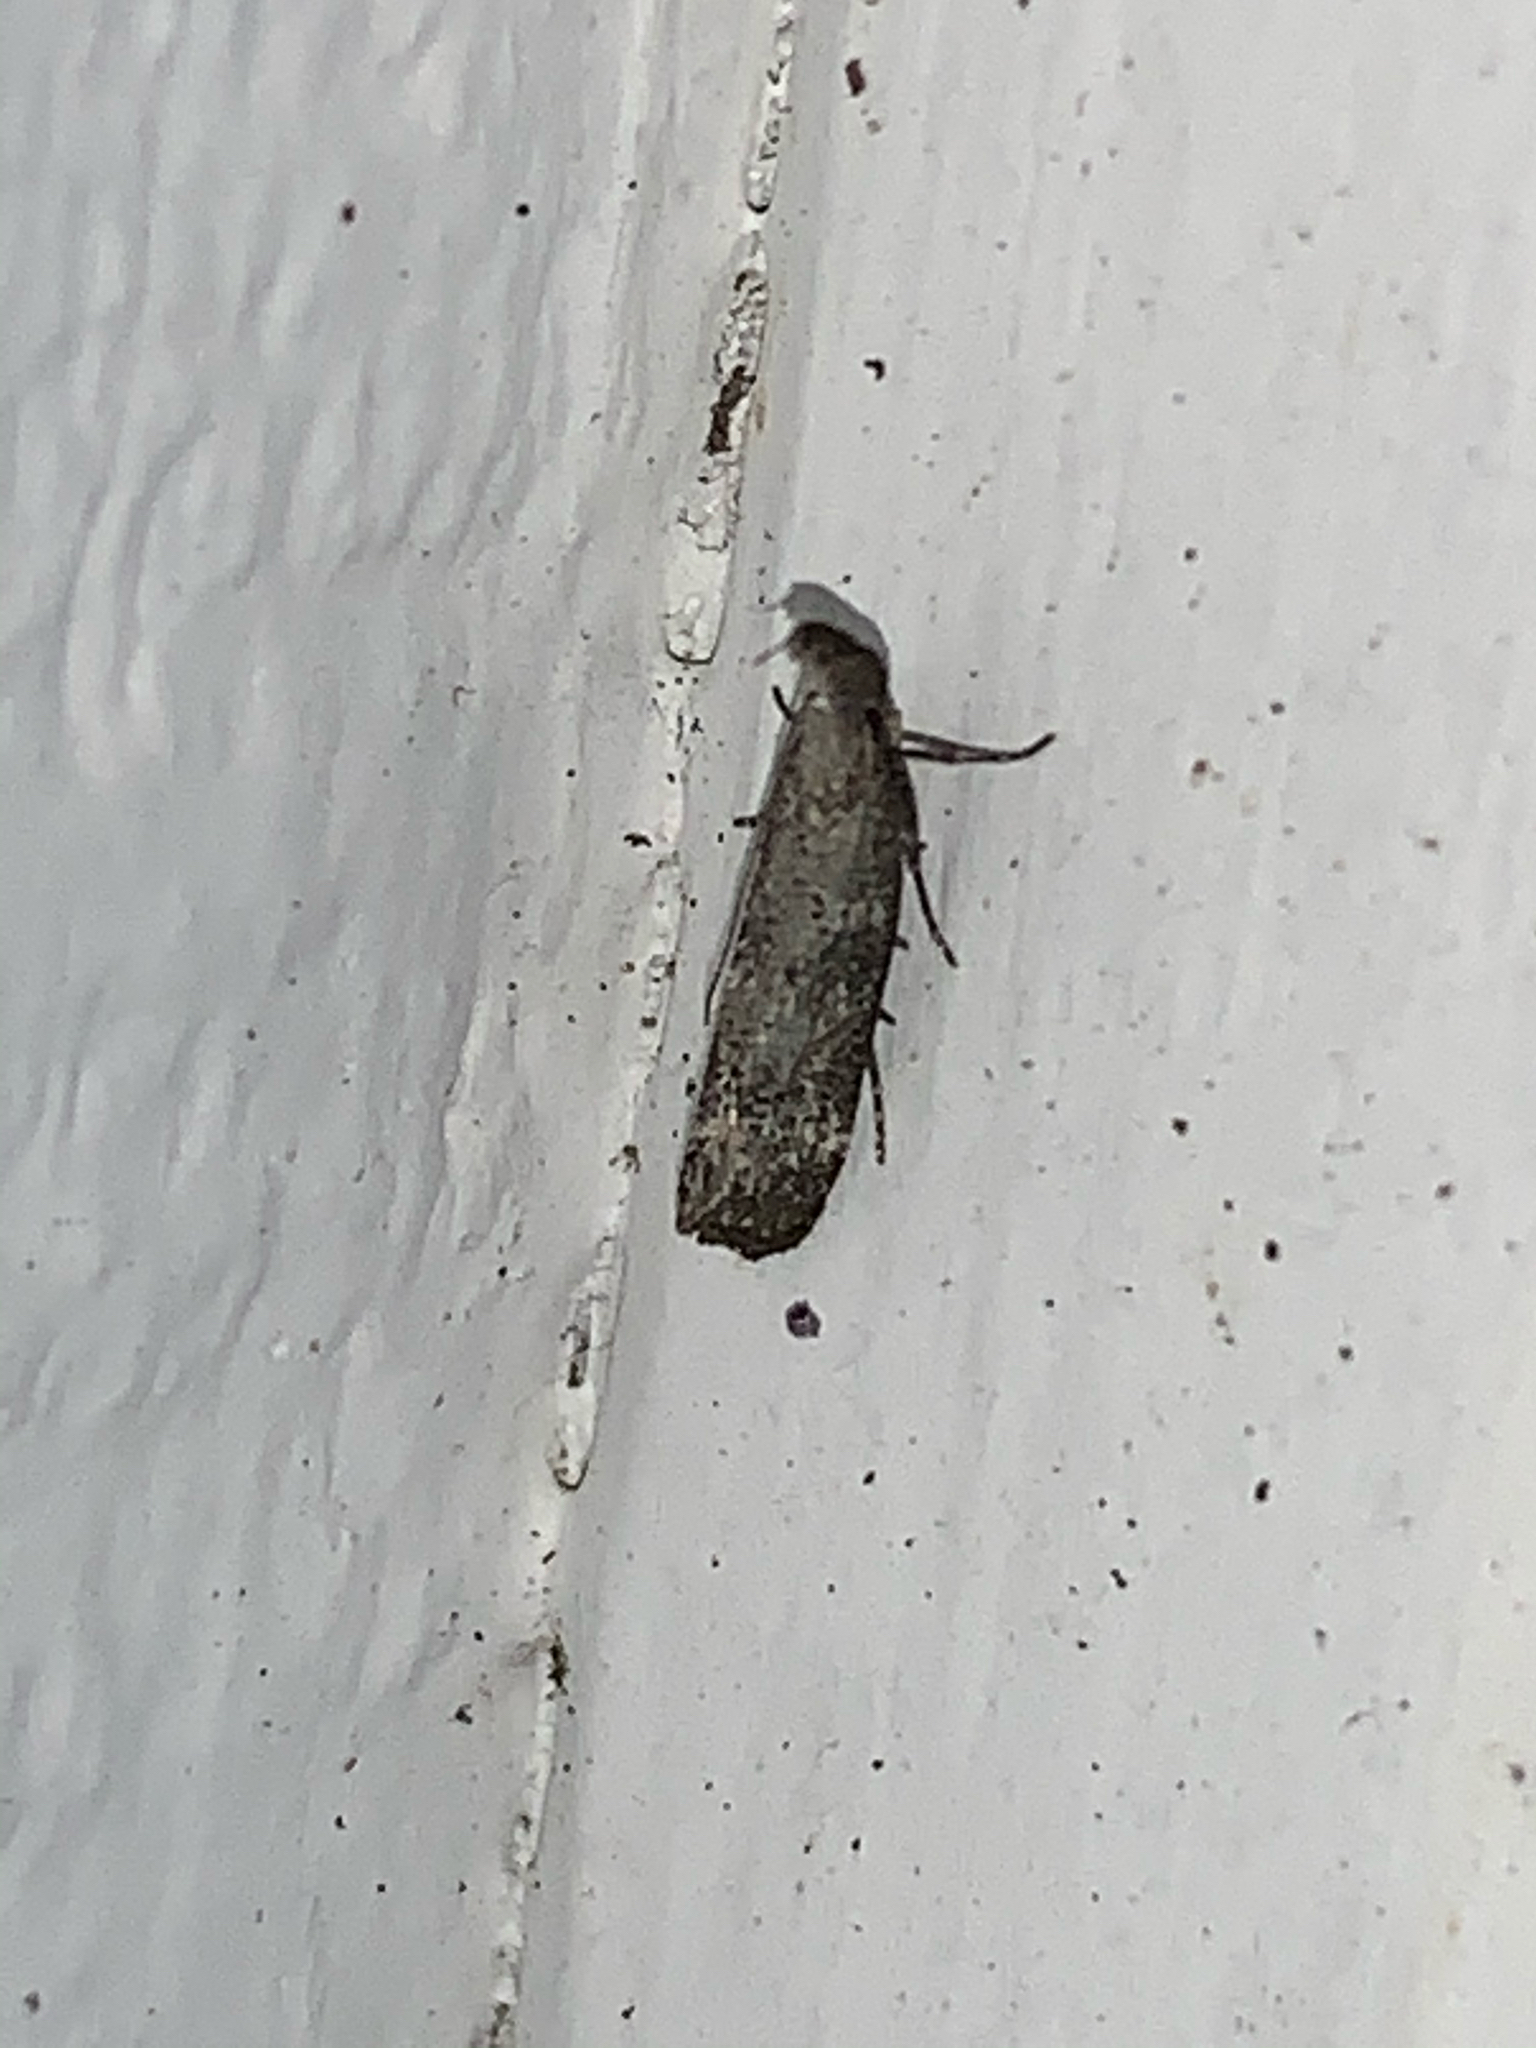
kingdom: Animalia
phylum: Arthropoda
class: Insecta
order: Lepidoptera
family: Gelechiidae
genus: Dichomeris
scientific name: Dichomeris inversella
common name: Inverse dichomeris moth
